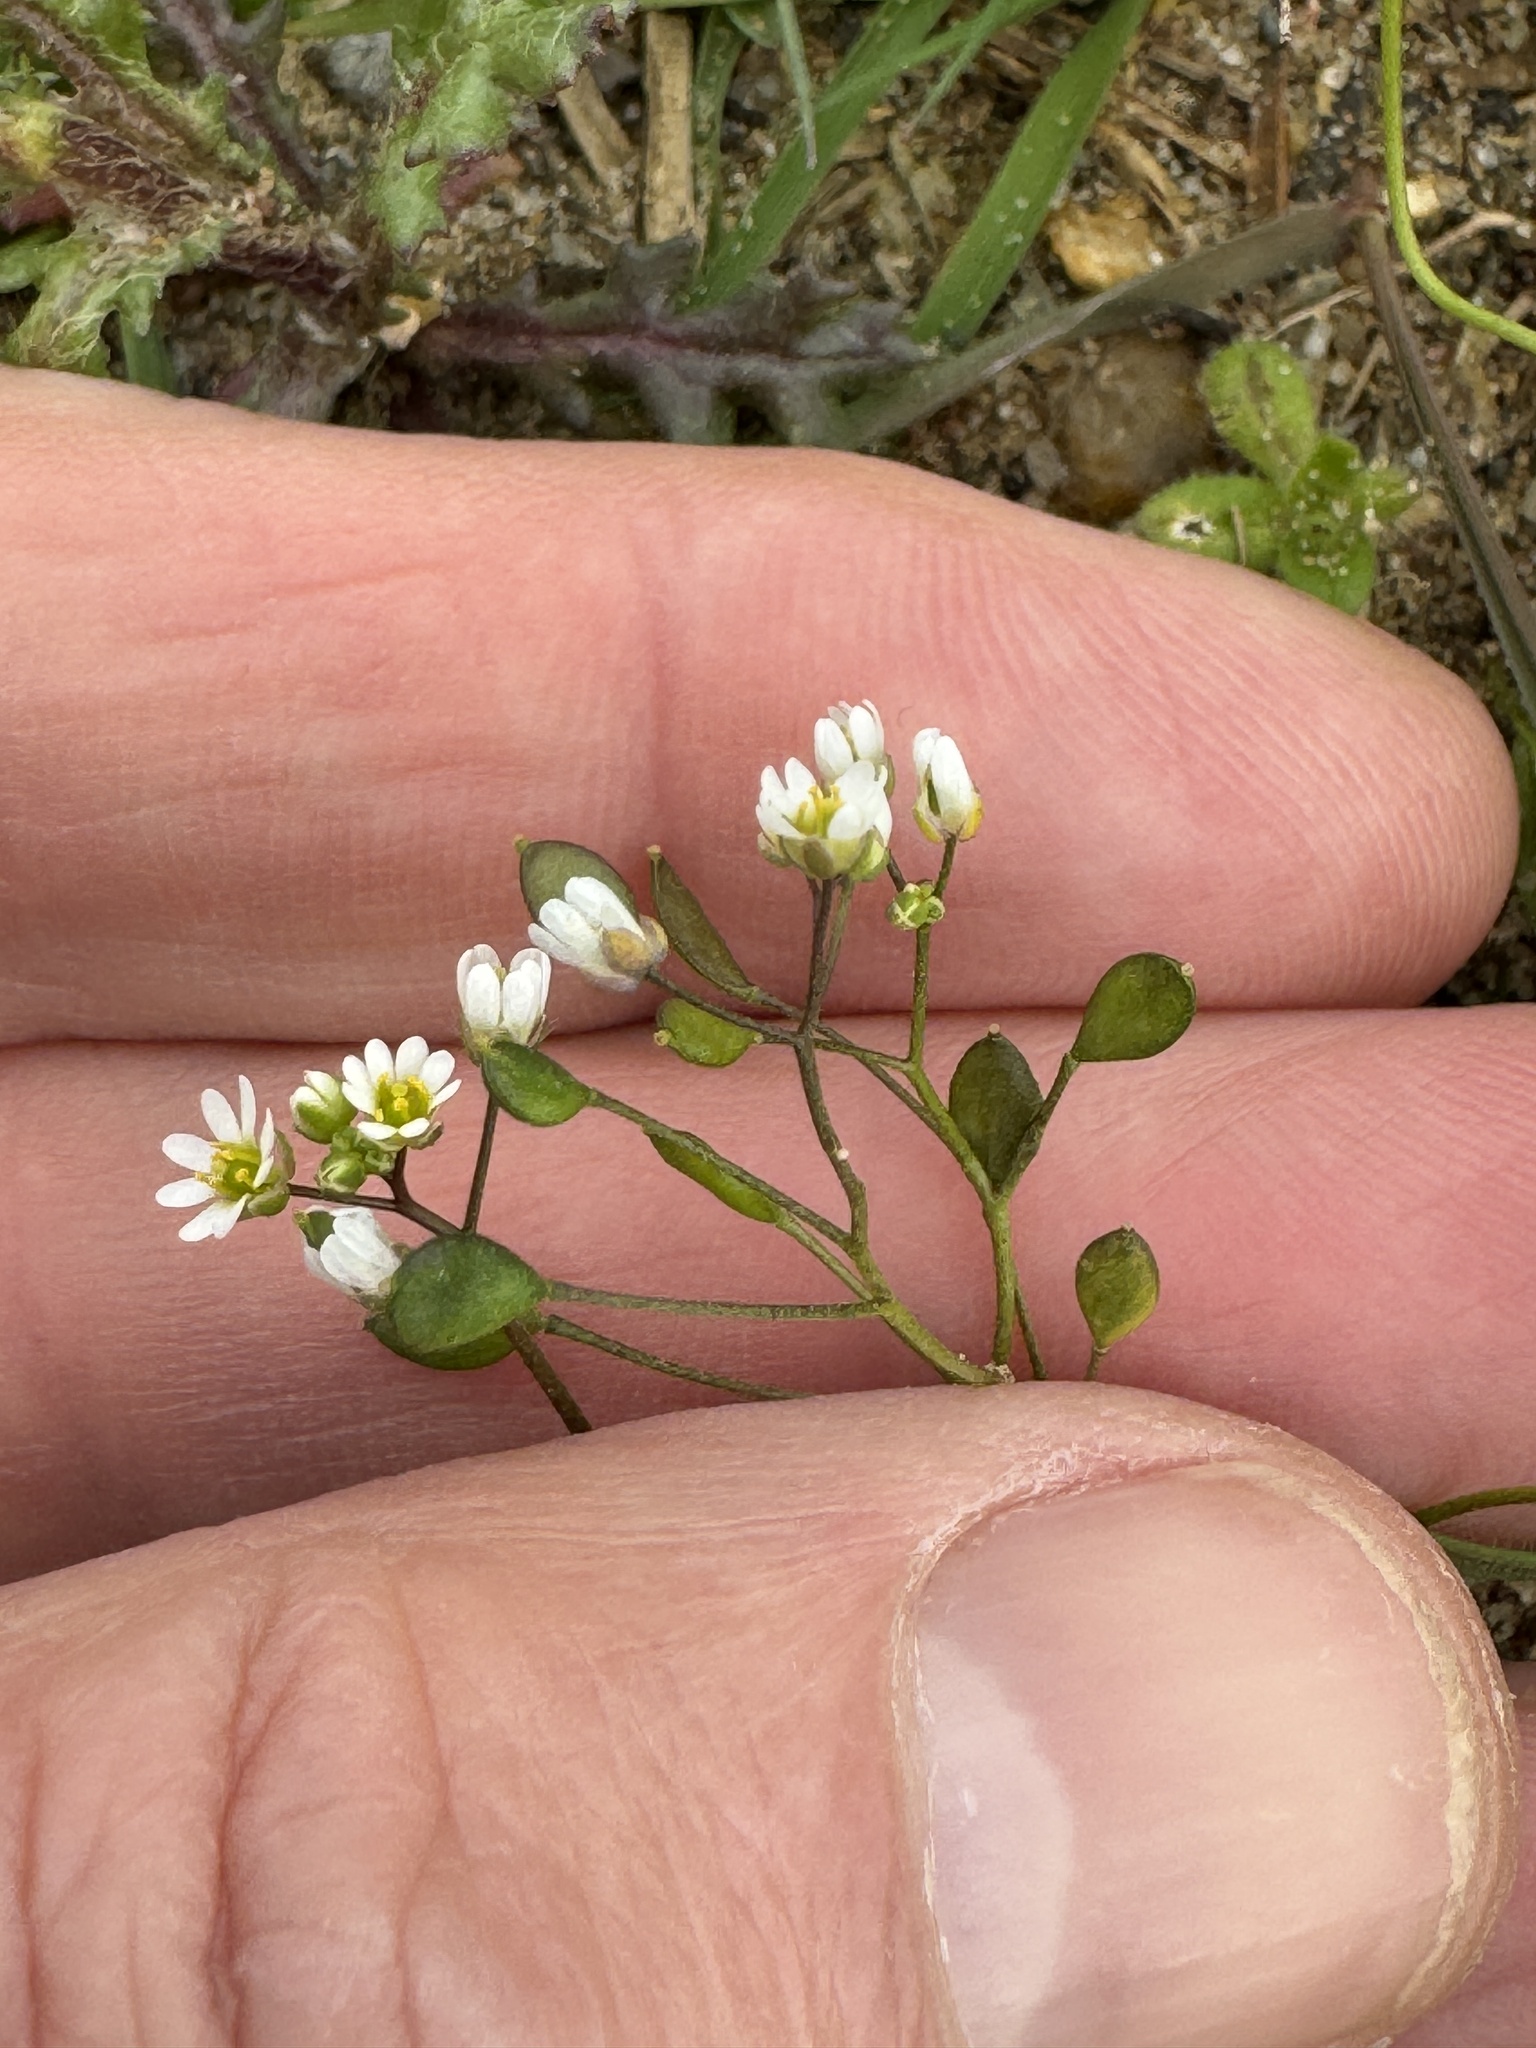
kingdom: Plantae
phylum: Tracheophyta
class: Magnoliopsida
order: Brassicales
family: Brassicaceae
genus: Draba
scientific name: Draba verna
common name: Spring draba
